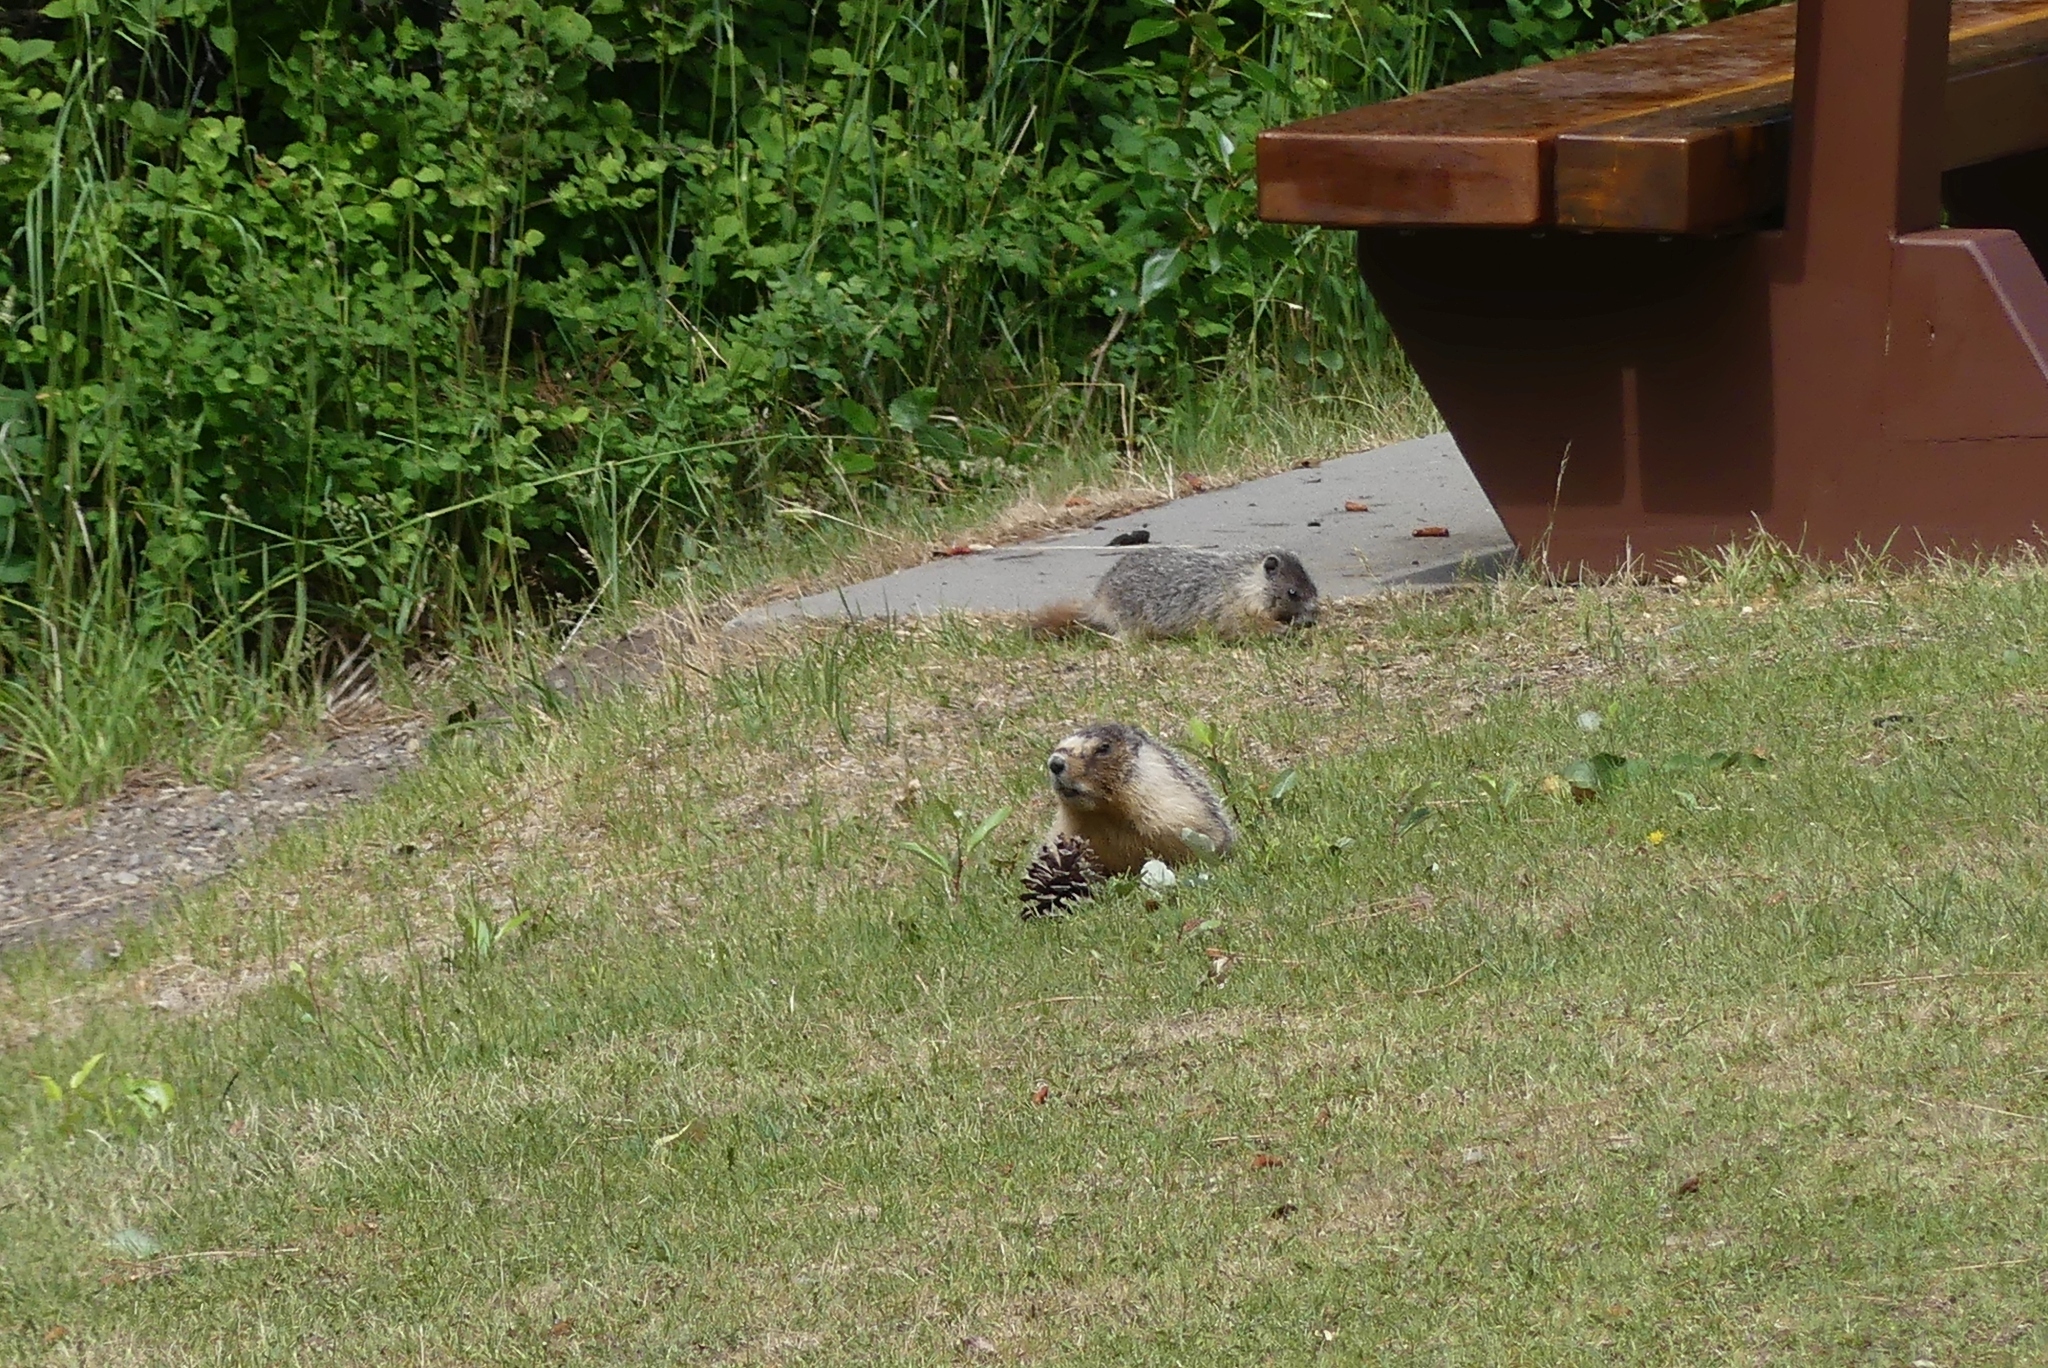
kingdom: Animalia
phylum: Chordata
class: Mammalia
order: Rodentia
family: Sciuridae
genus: Marmota
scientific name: Marmota flaviventris
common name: Yellow-bellied marmot
